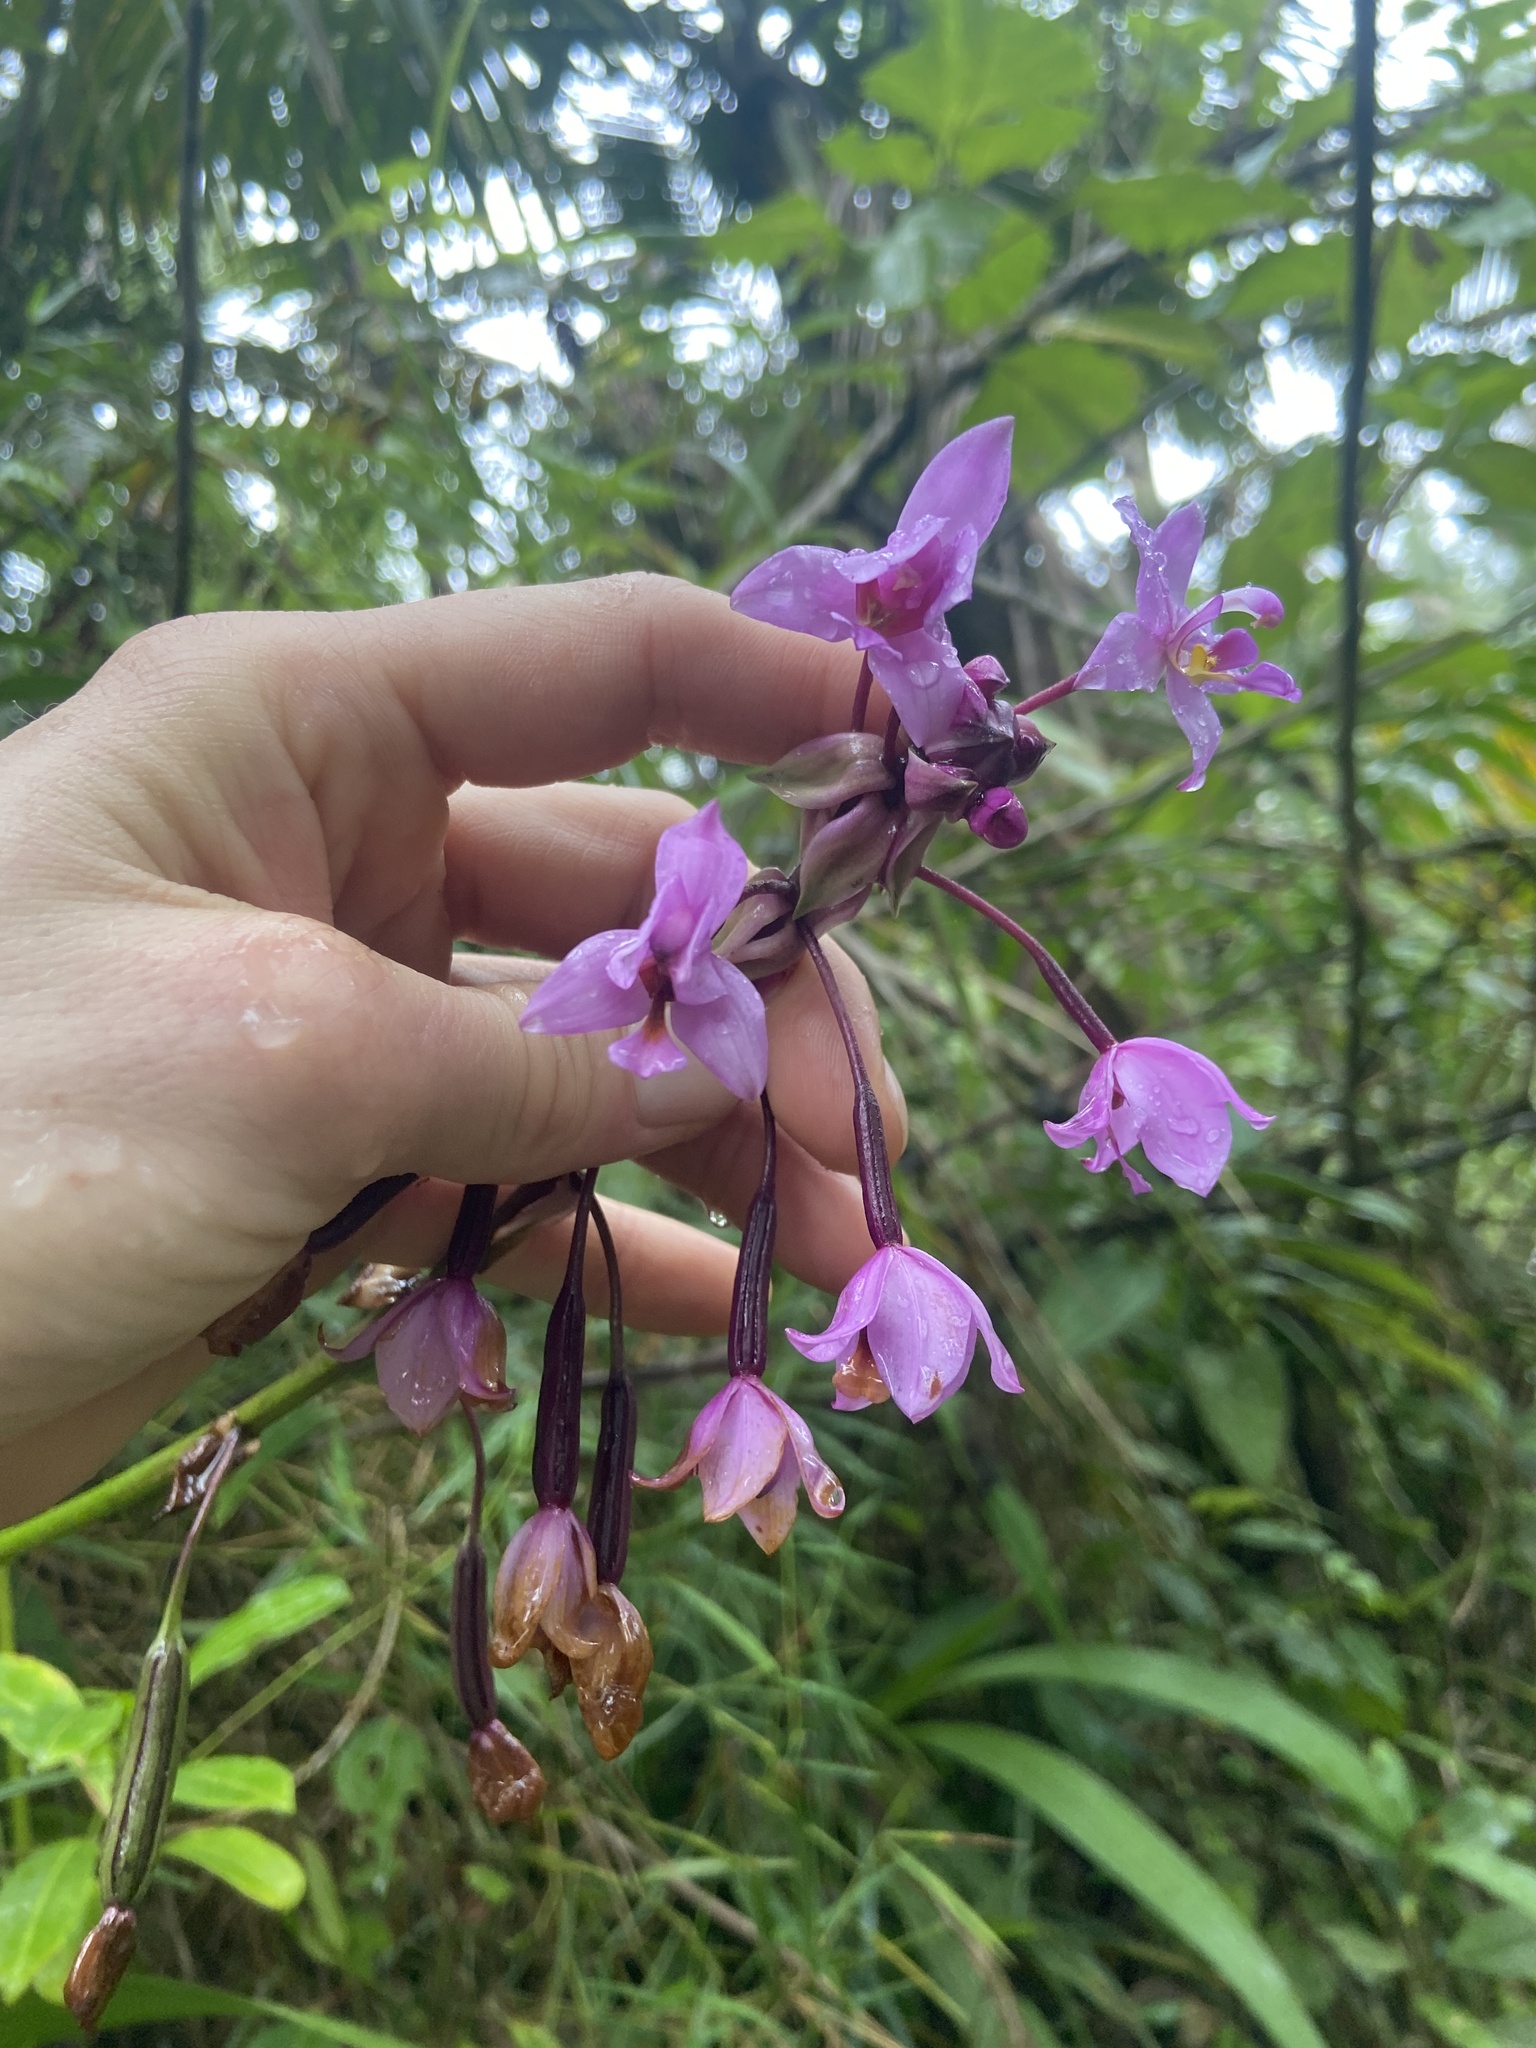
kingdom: Plantae
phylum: Tracheophyta
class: Liliopsida
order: Asparagales
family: Orchidaceae
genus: Spathoglottis
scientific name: Spathoglottis plicata
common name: Philippine ground orchid
